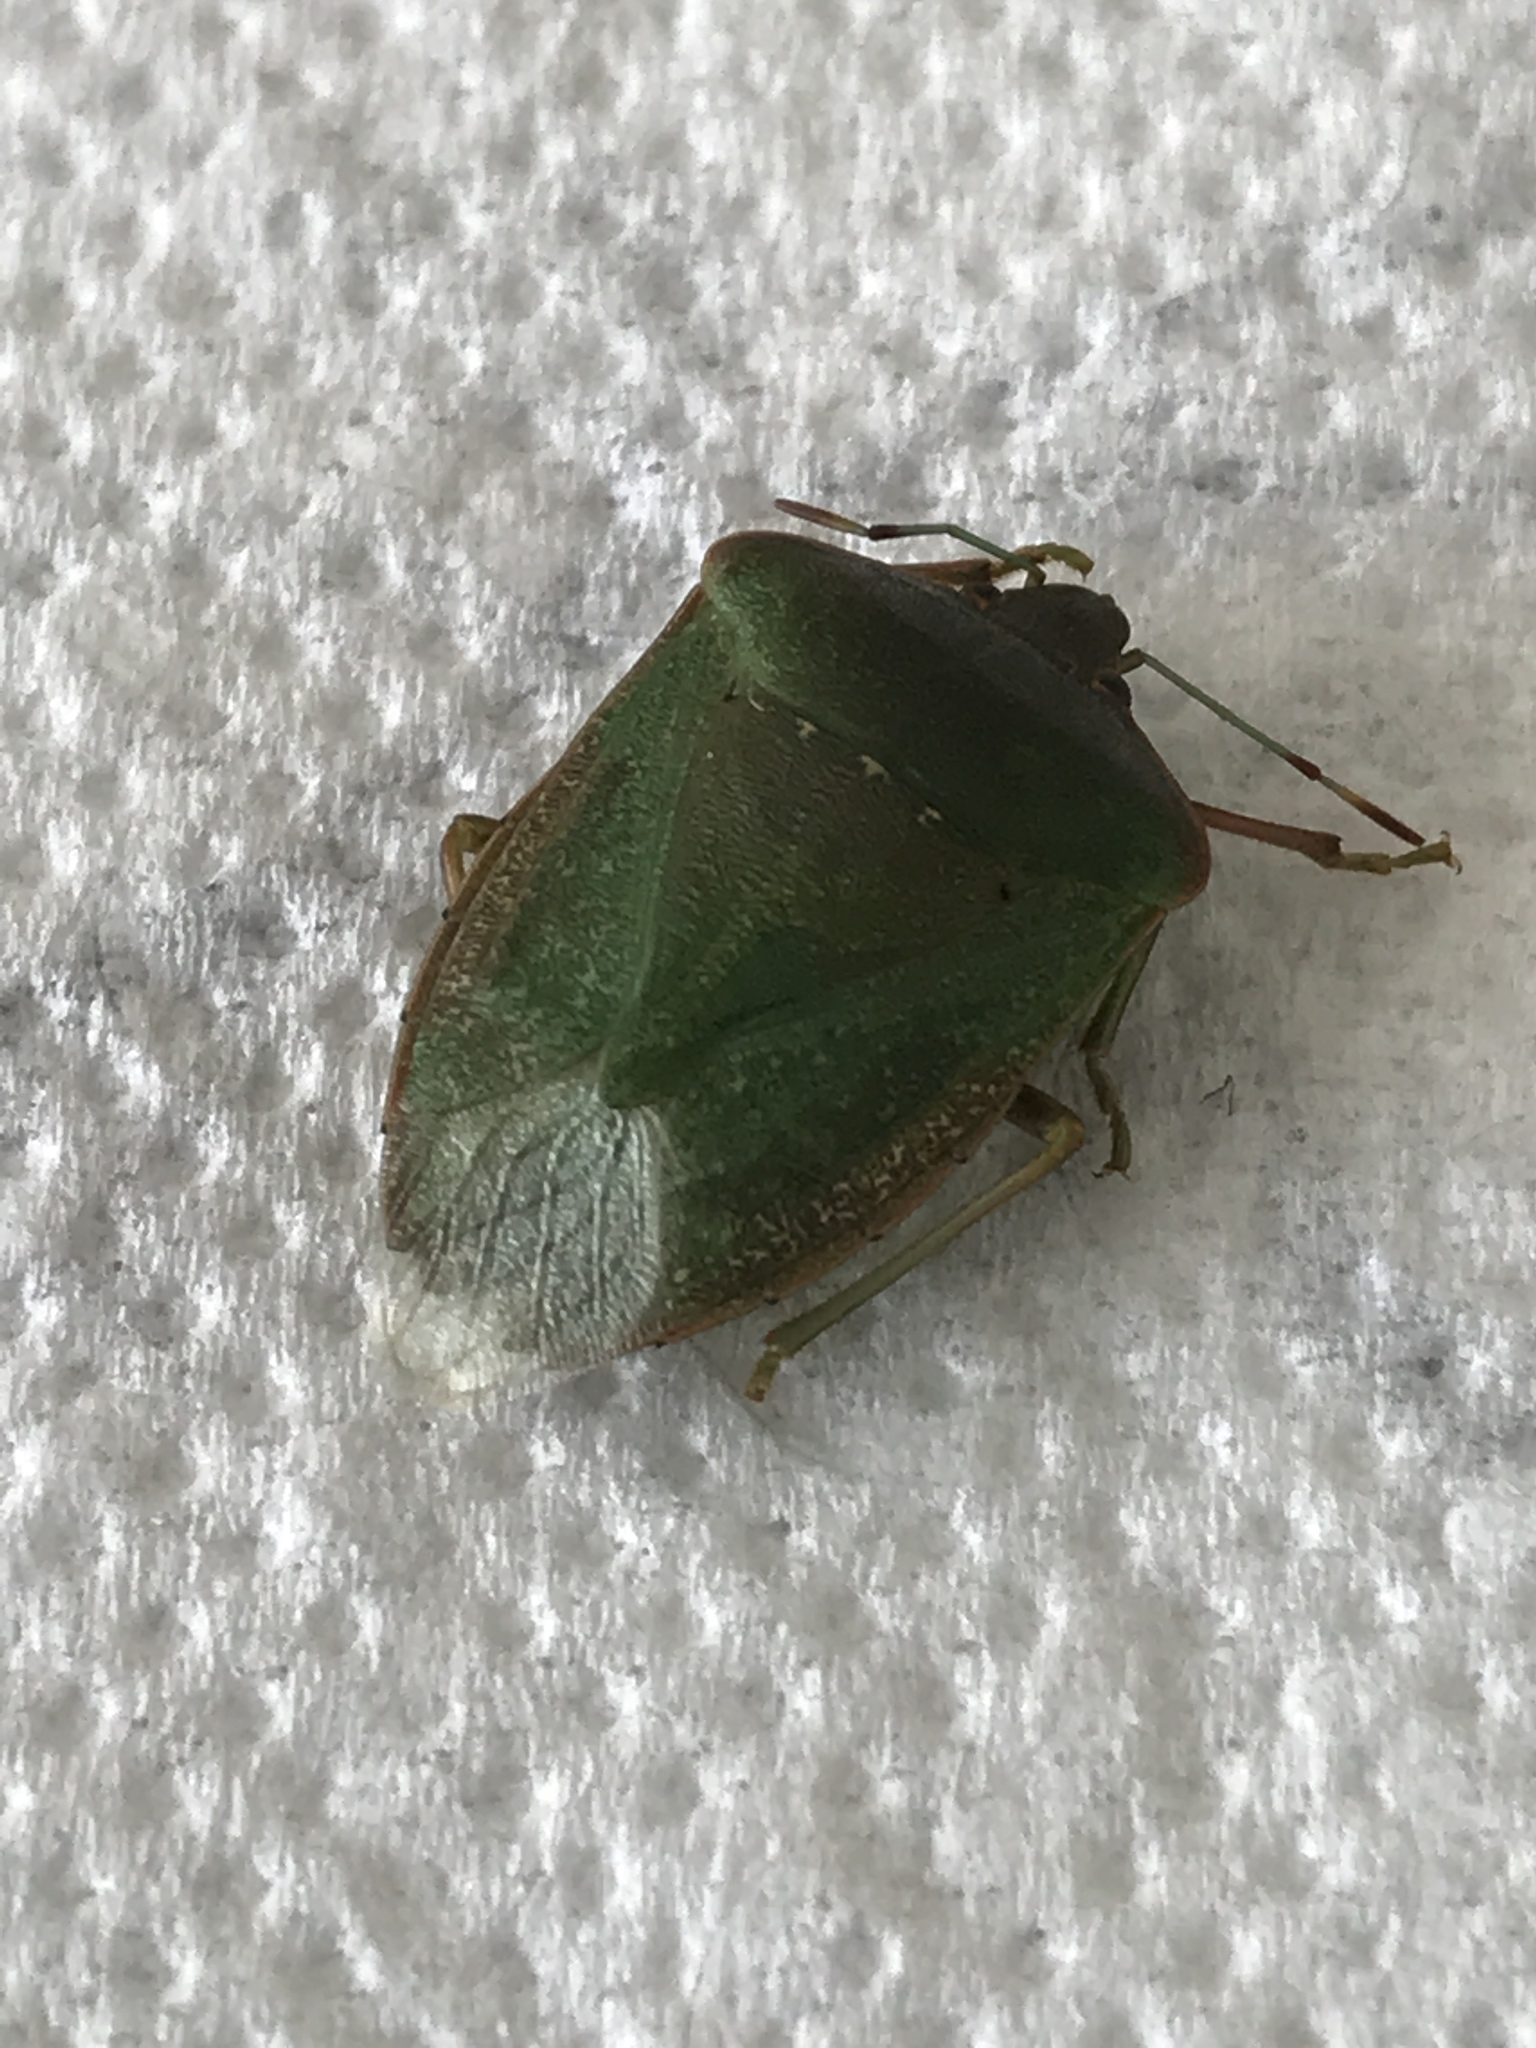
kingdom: Animalia
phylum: Arthropoda
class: Insecta
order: Hemiptera
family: Pentatomidae
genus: Nezara
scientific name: Nezara viridula
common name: Southern green stink bug
